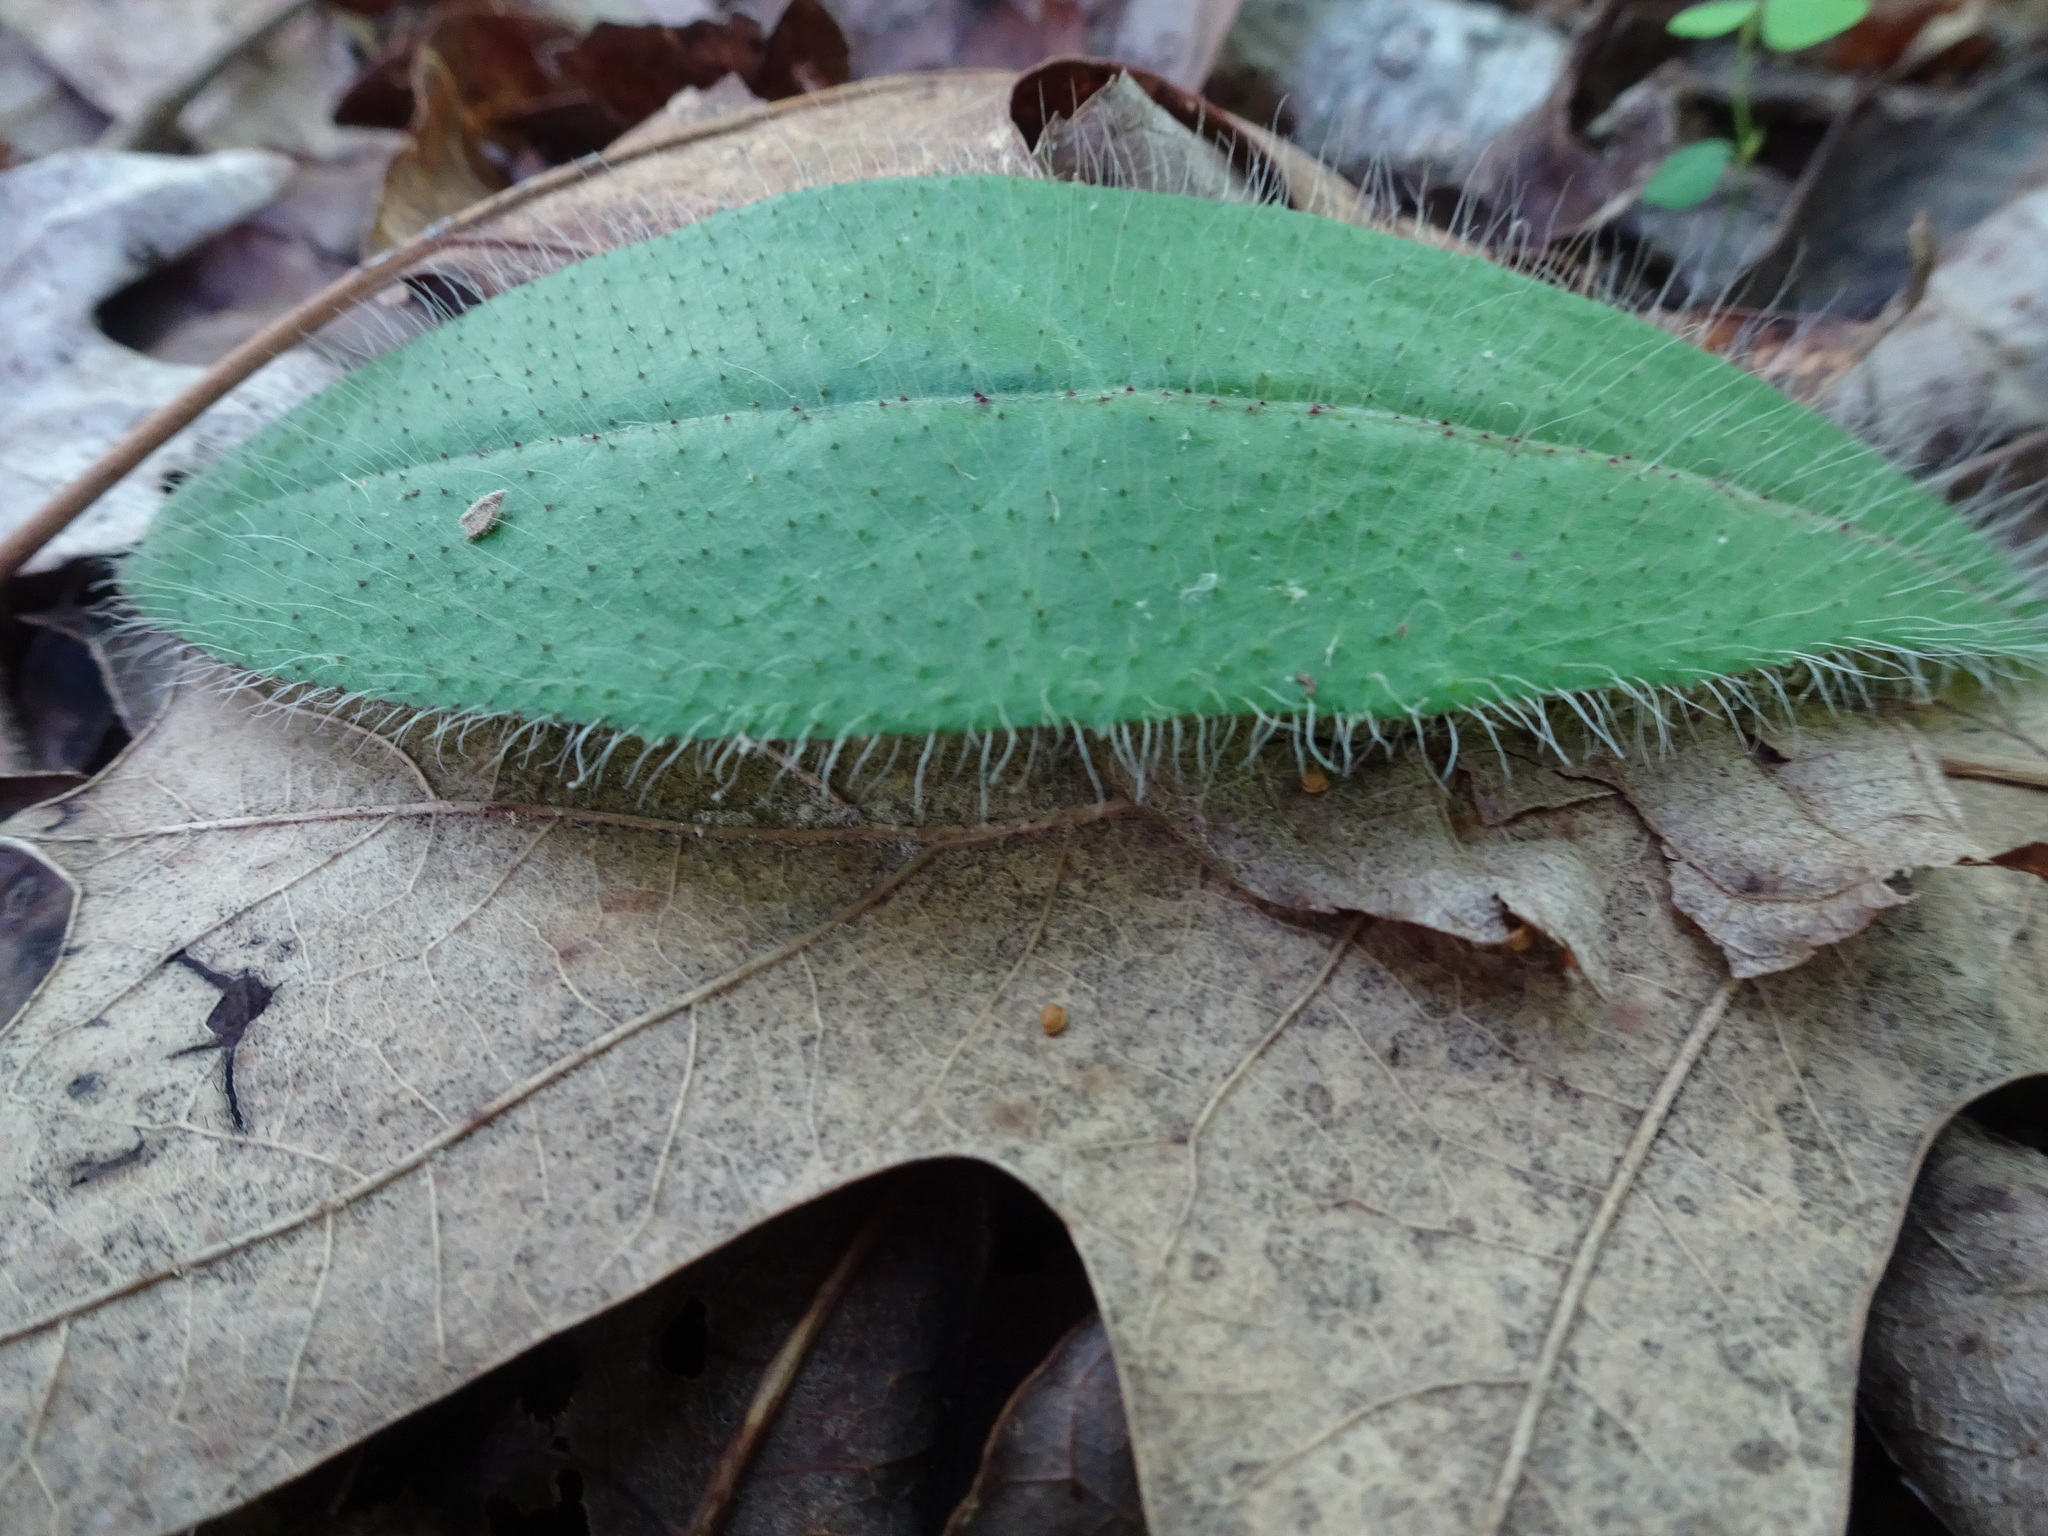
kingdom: Plantae
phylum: Tracheophyta
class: Magnoliopsida
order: Asterales
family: Asteraceae
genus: Hieracium
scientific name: Hieracium gronovii
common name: Beaked hawkweed
